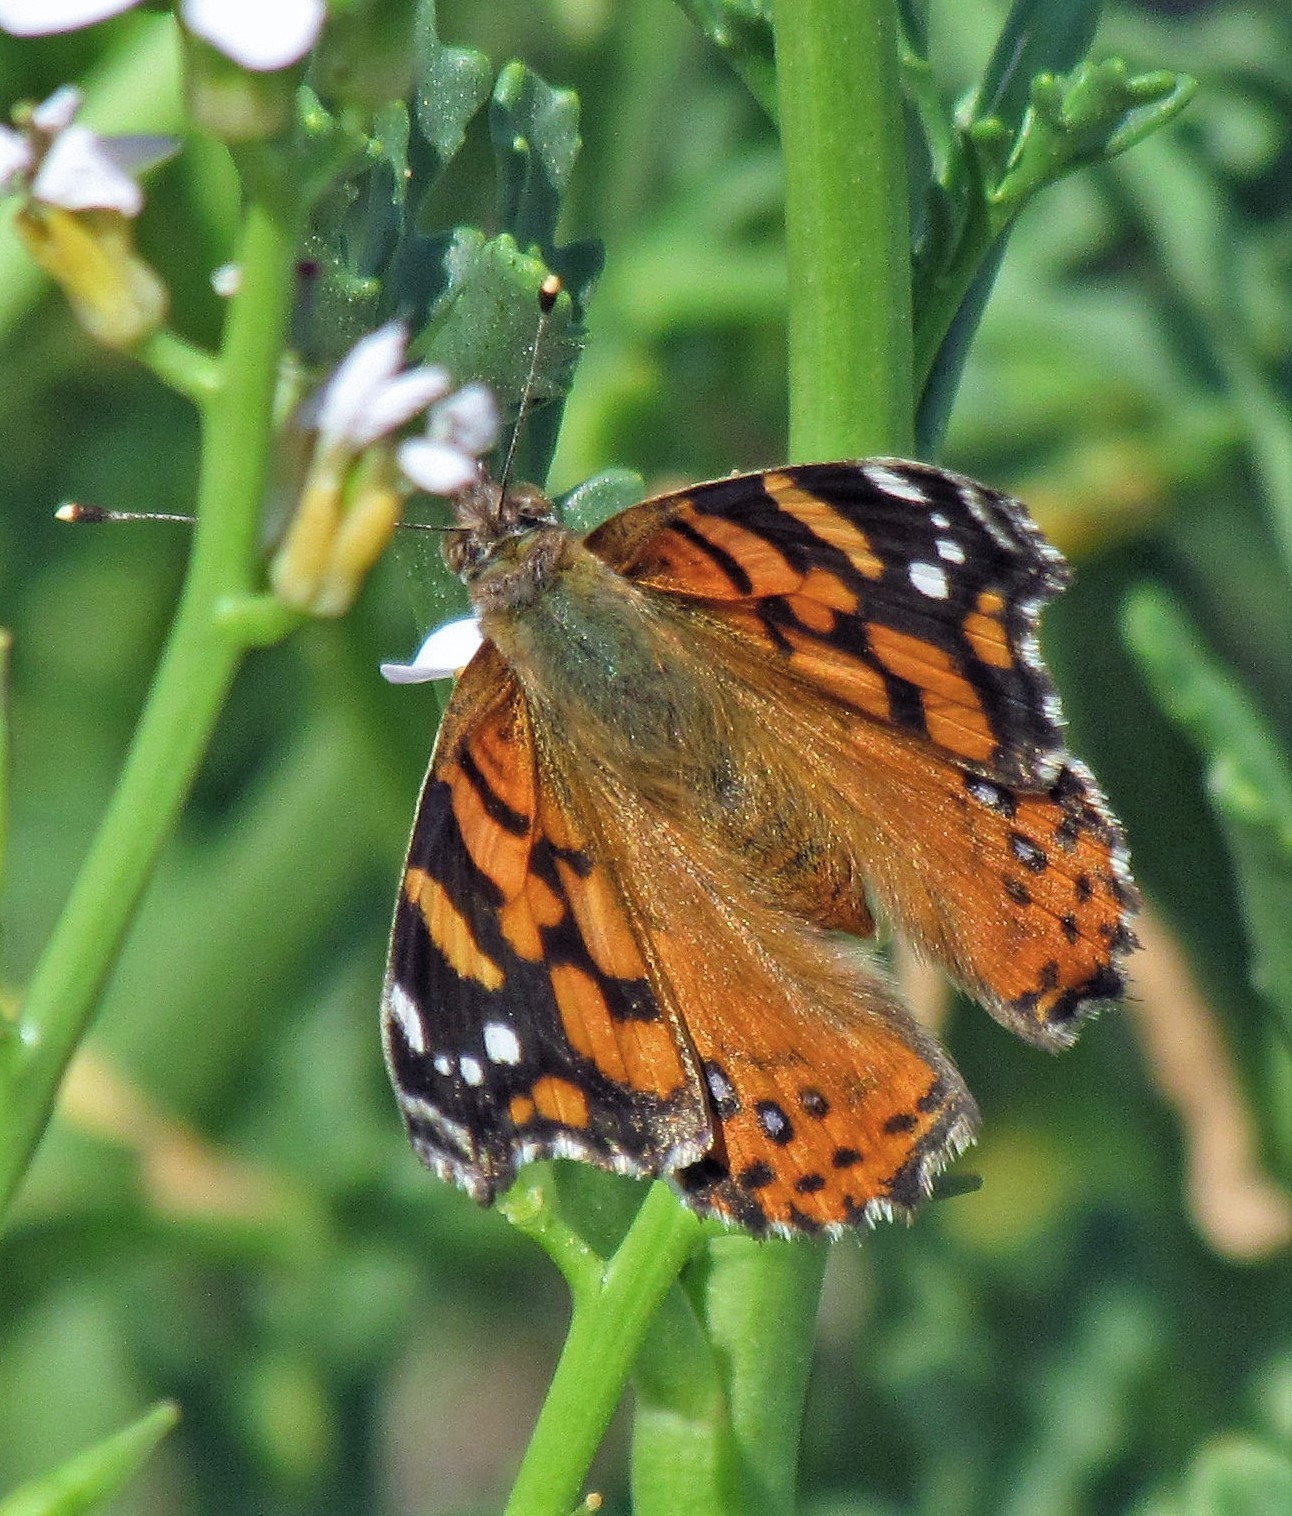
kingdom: Animalia
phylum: Arthropoda
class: Insecta
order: Lepidoptera
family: Nymphalidae
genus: Vanessa
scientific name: Vanessa carye
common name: Subtropical lady
